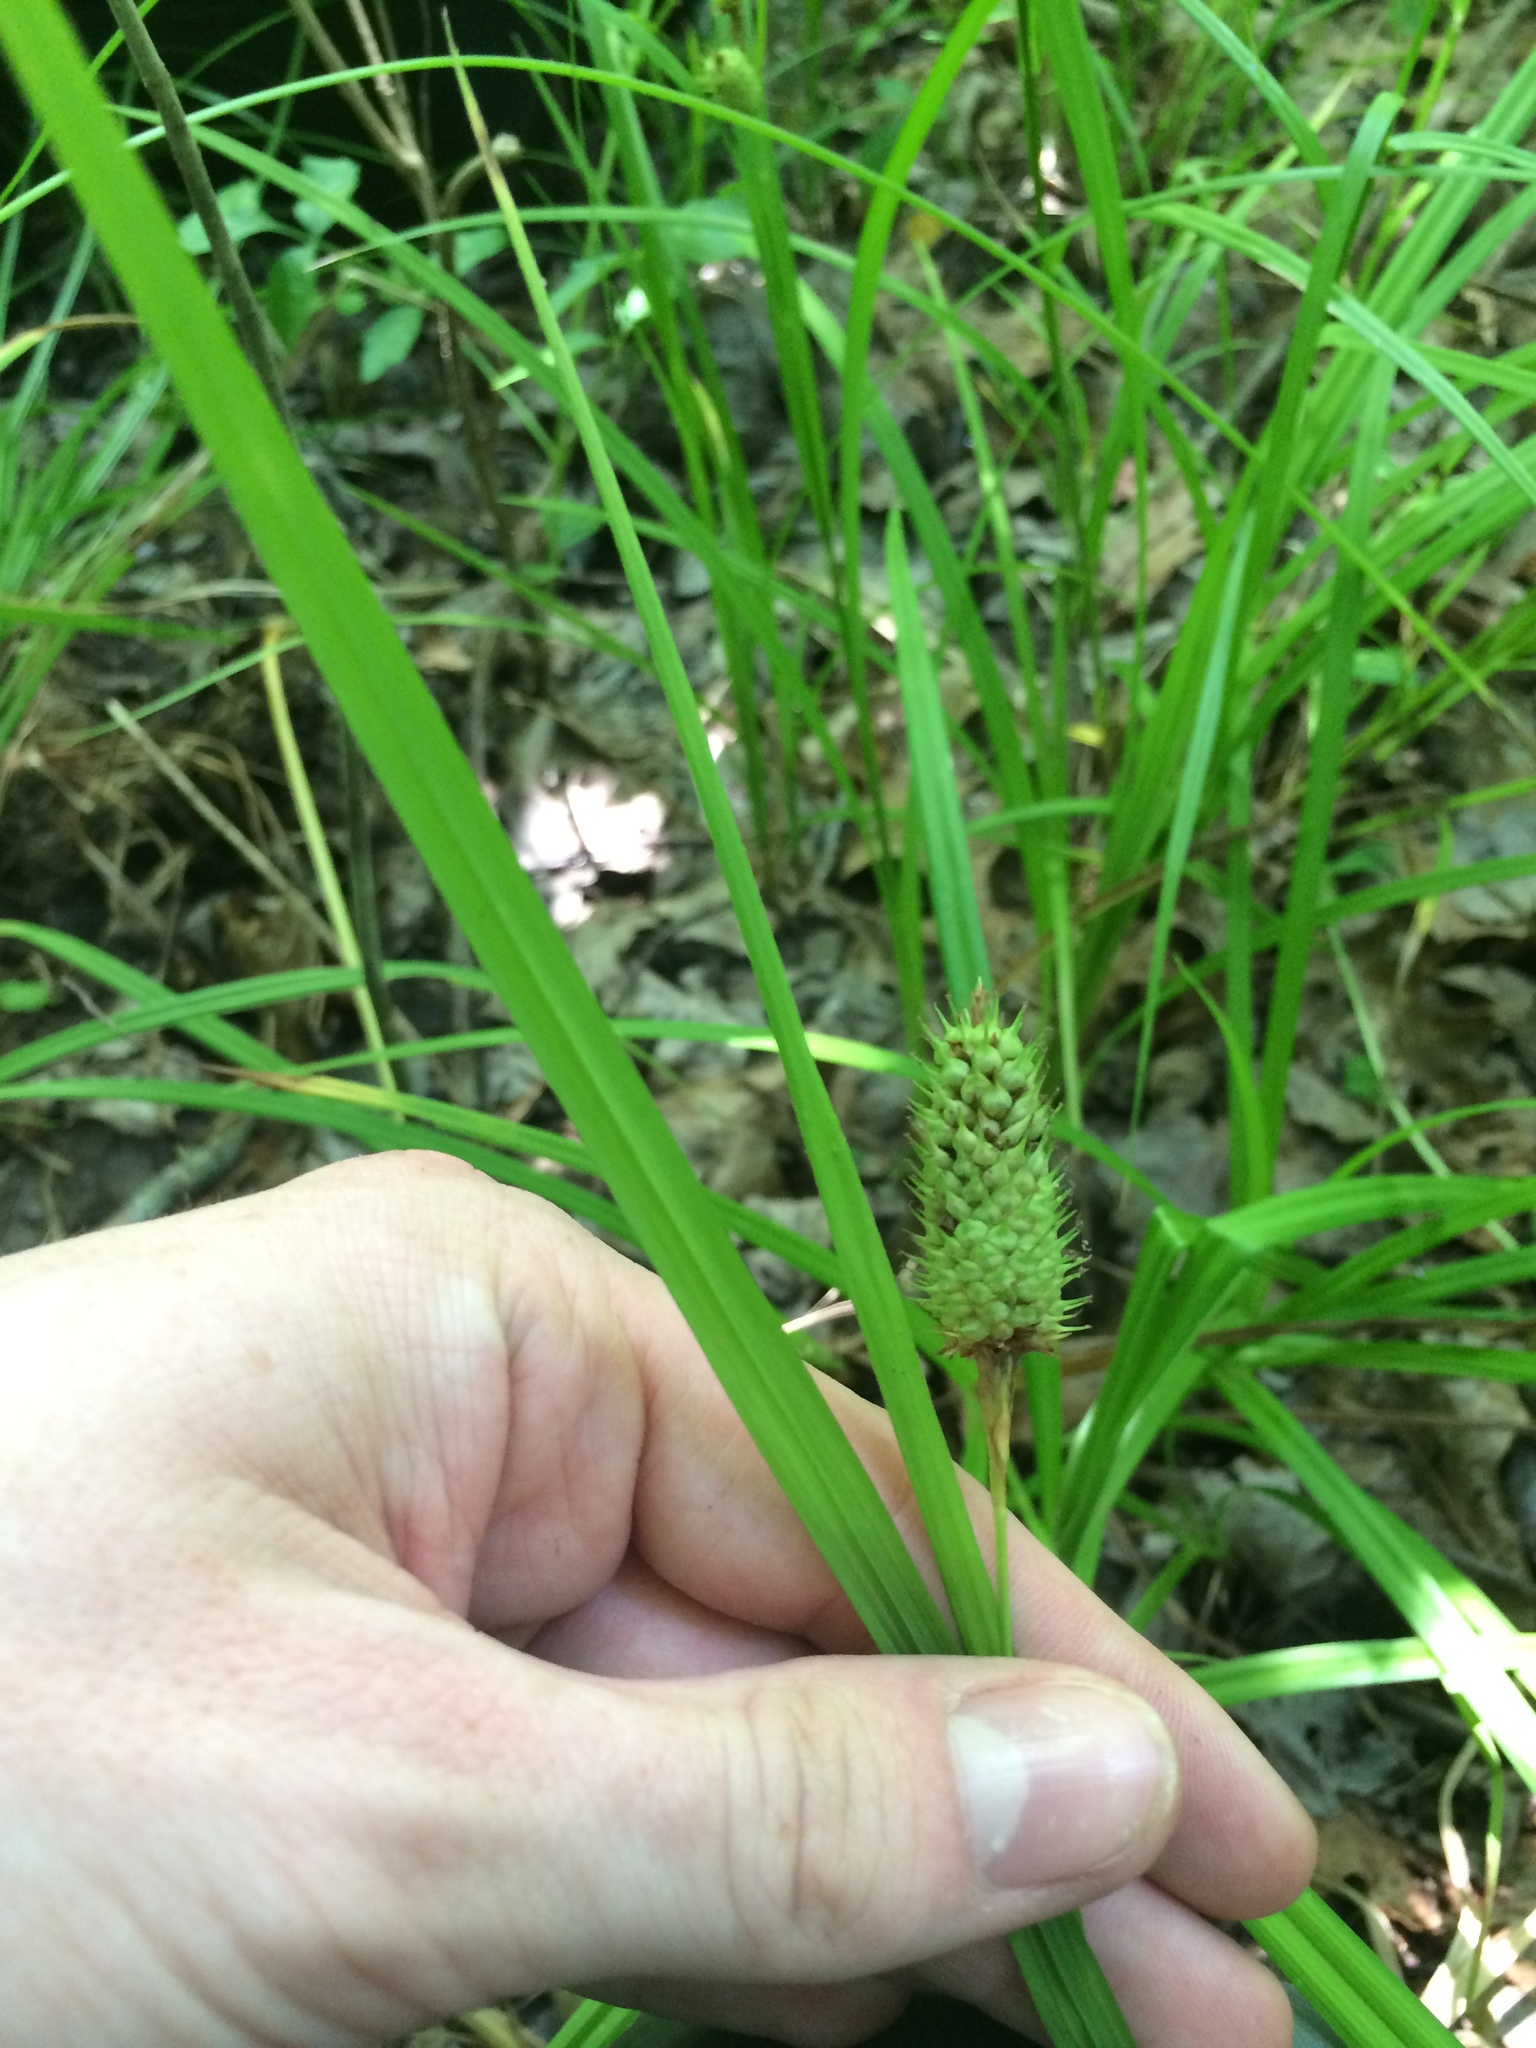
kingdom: Plantae
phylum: Tracheophyta
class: Liliopsida
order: Poales
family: Cyperaceae
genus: Carex
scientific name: Carex typhina
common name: Cattail sedge
